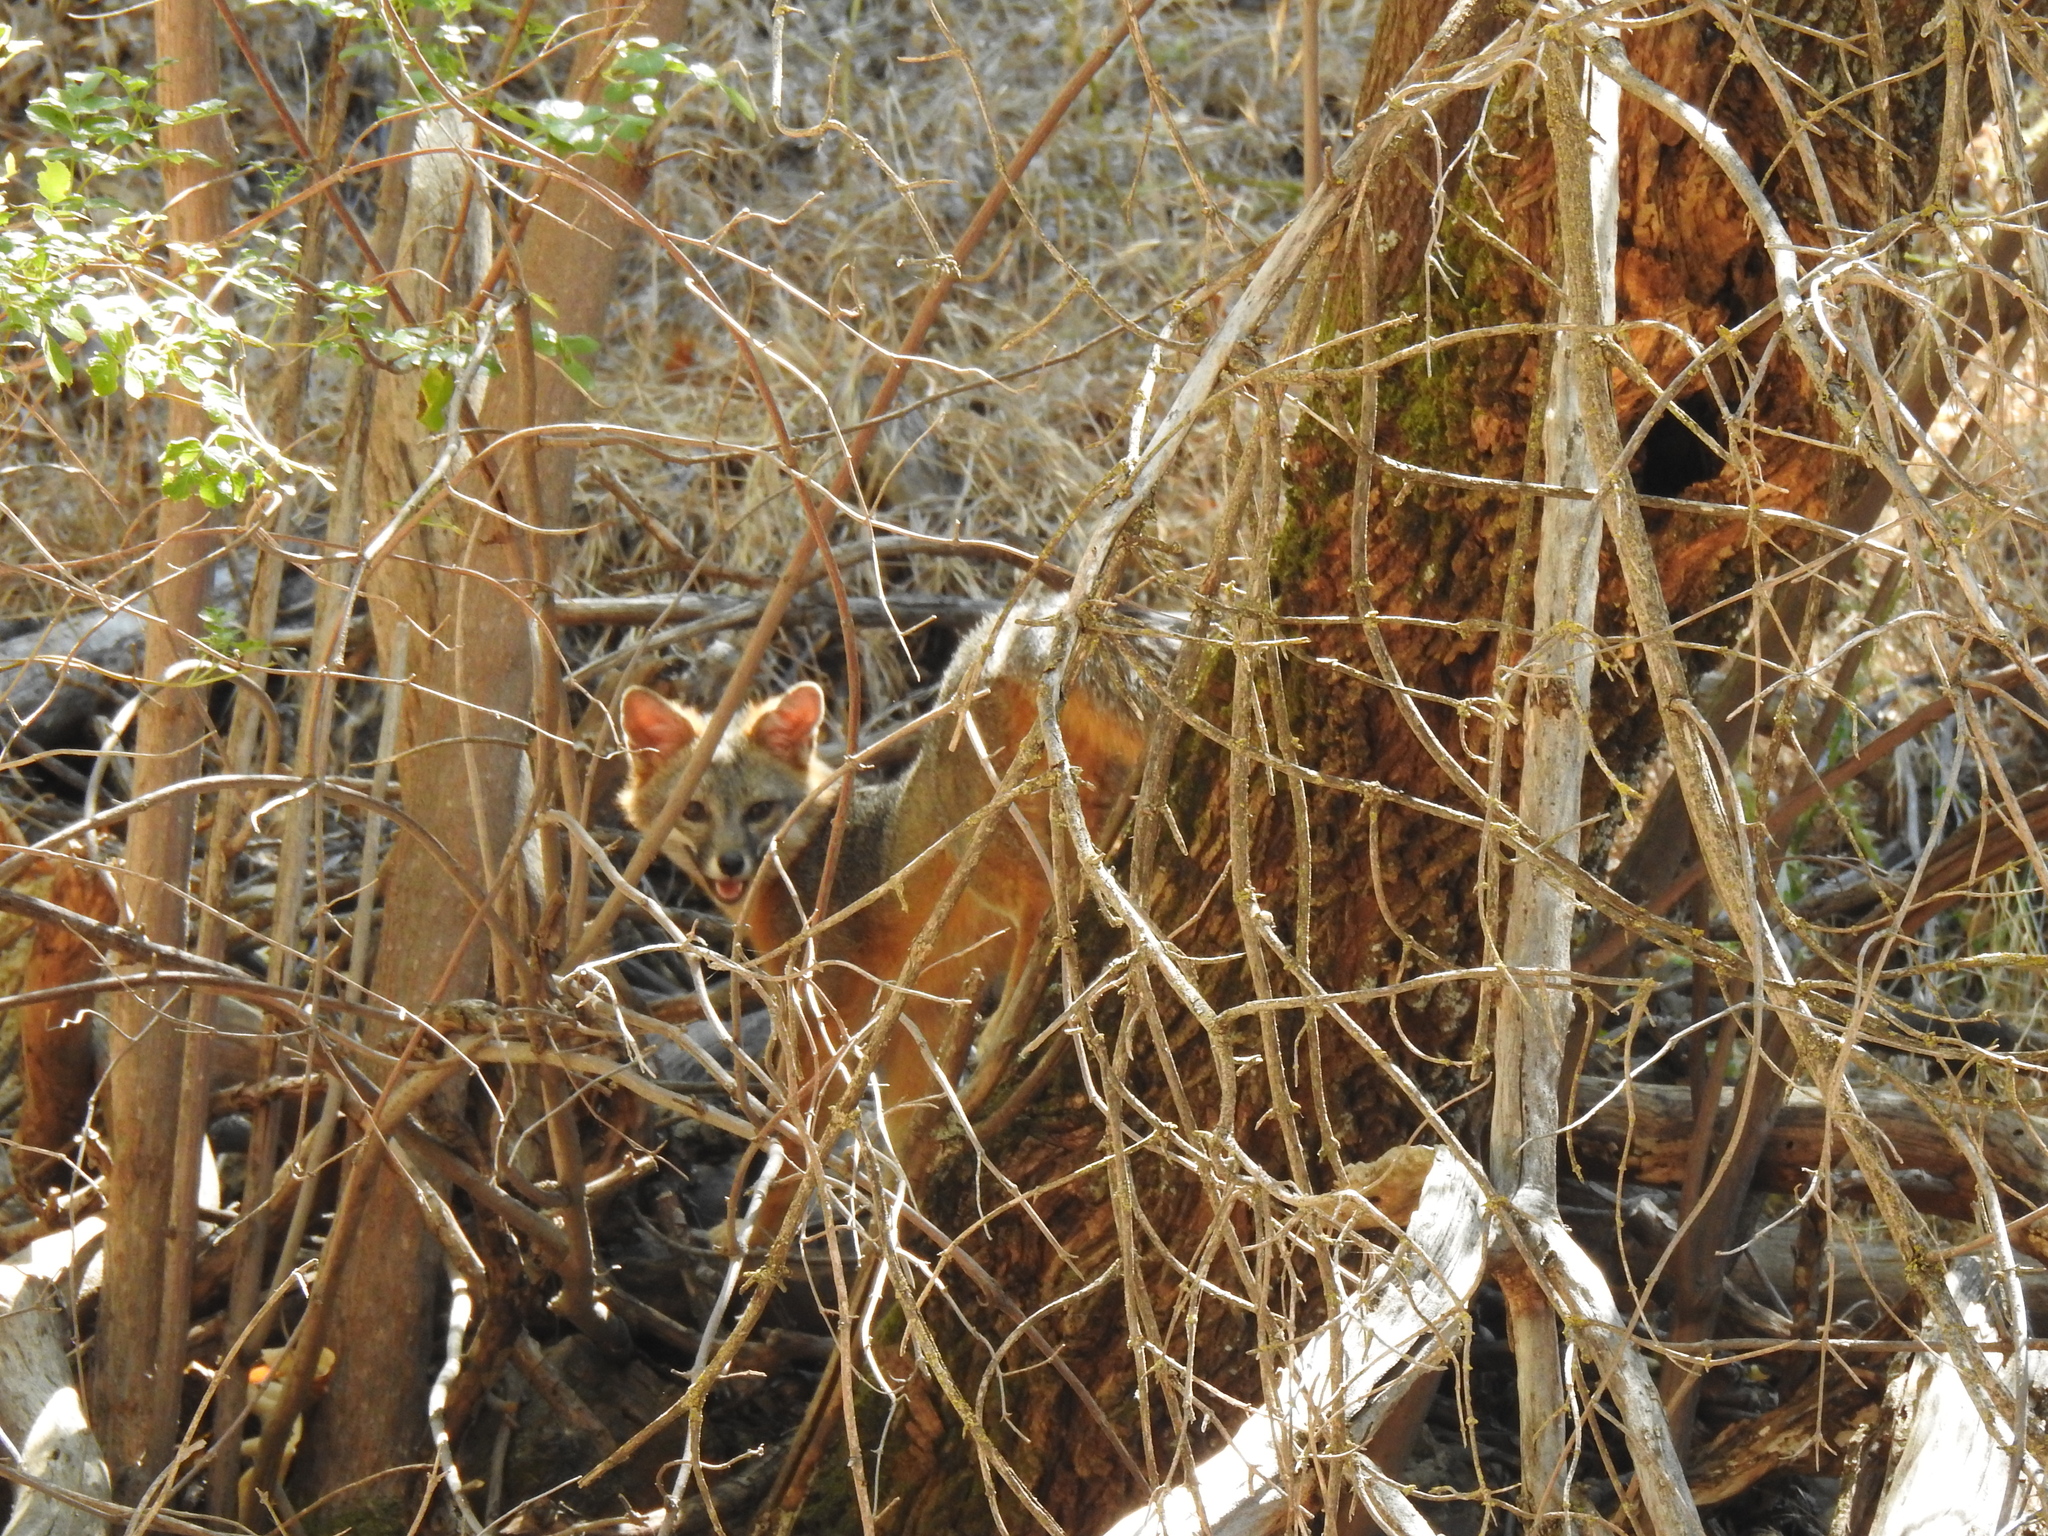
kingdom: Animalia
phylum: Chordata
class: Mammalia
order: Carnivora
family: Canidae
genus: Urocyon
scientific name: Urocyon cinereoargenteus
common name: Gray fox
